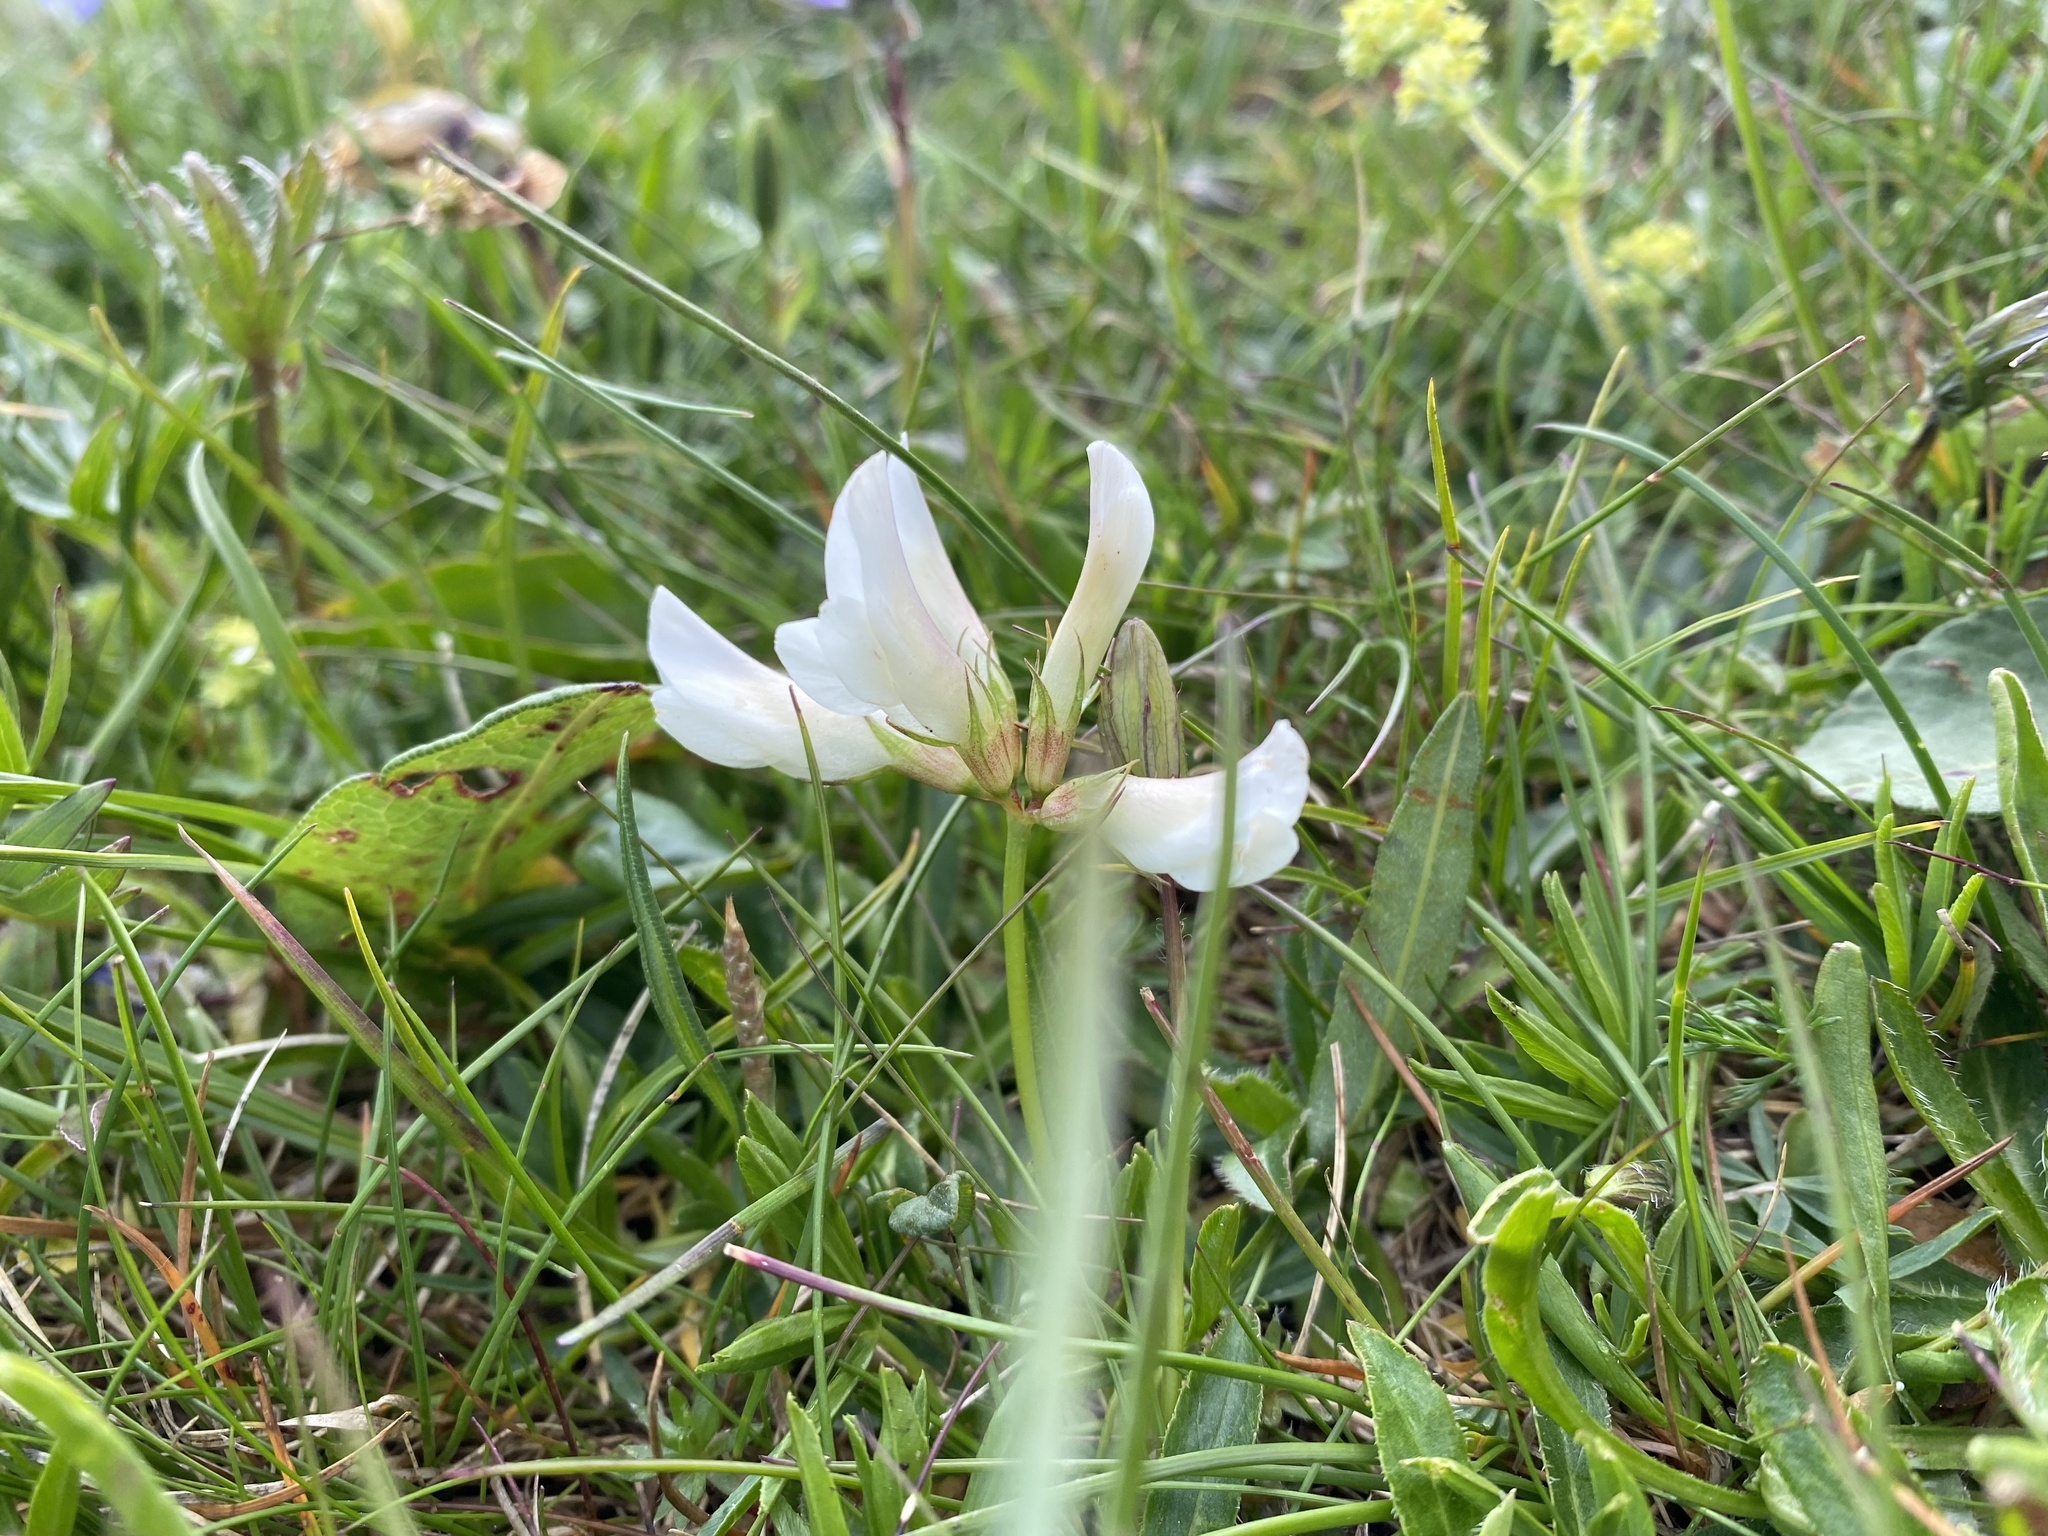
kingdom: Plantae
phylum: Tracheophyta
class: Magnoliopsida
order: Fabales
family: Fabaceae
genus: Trifolium
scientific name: Trifolium polyphyllum
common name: Many-leaf clover
